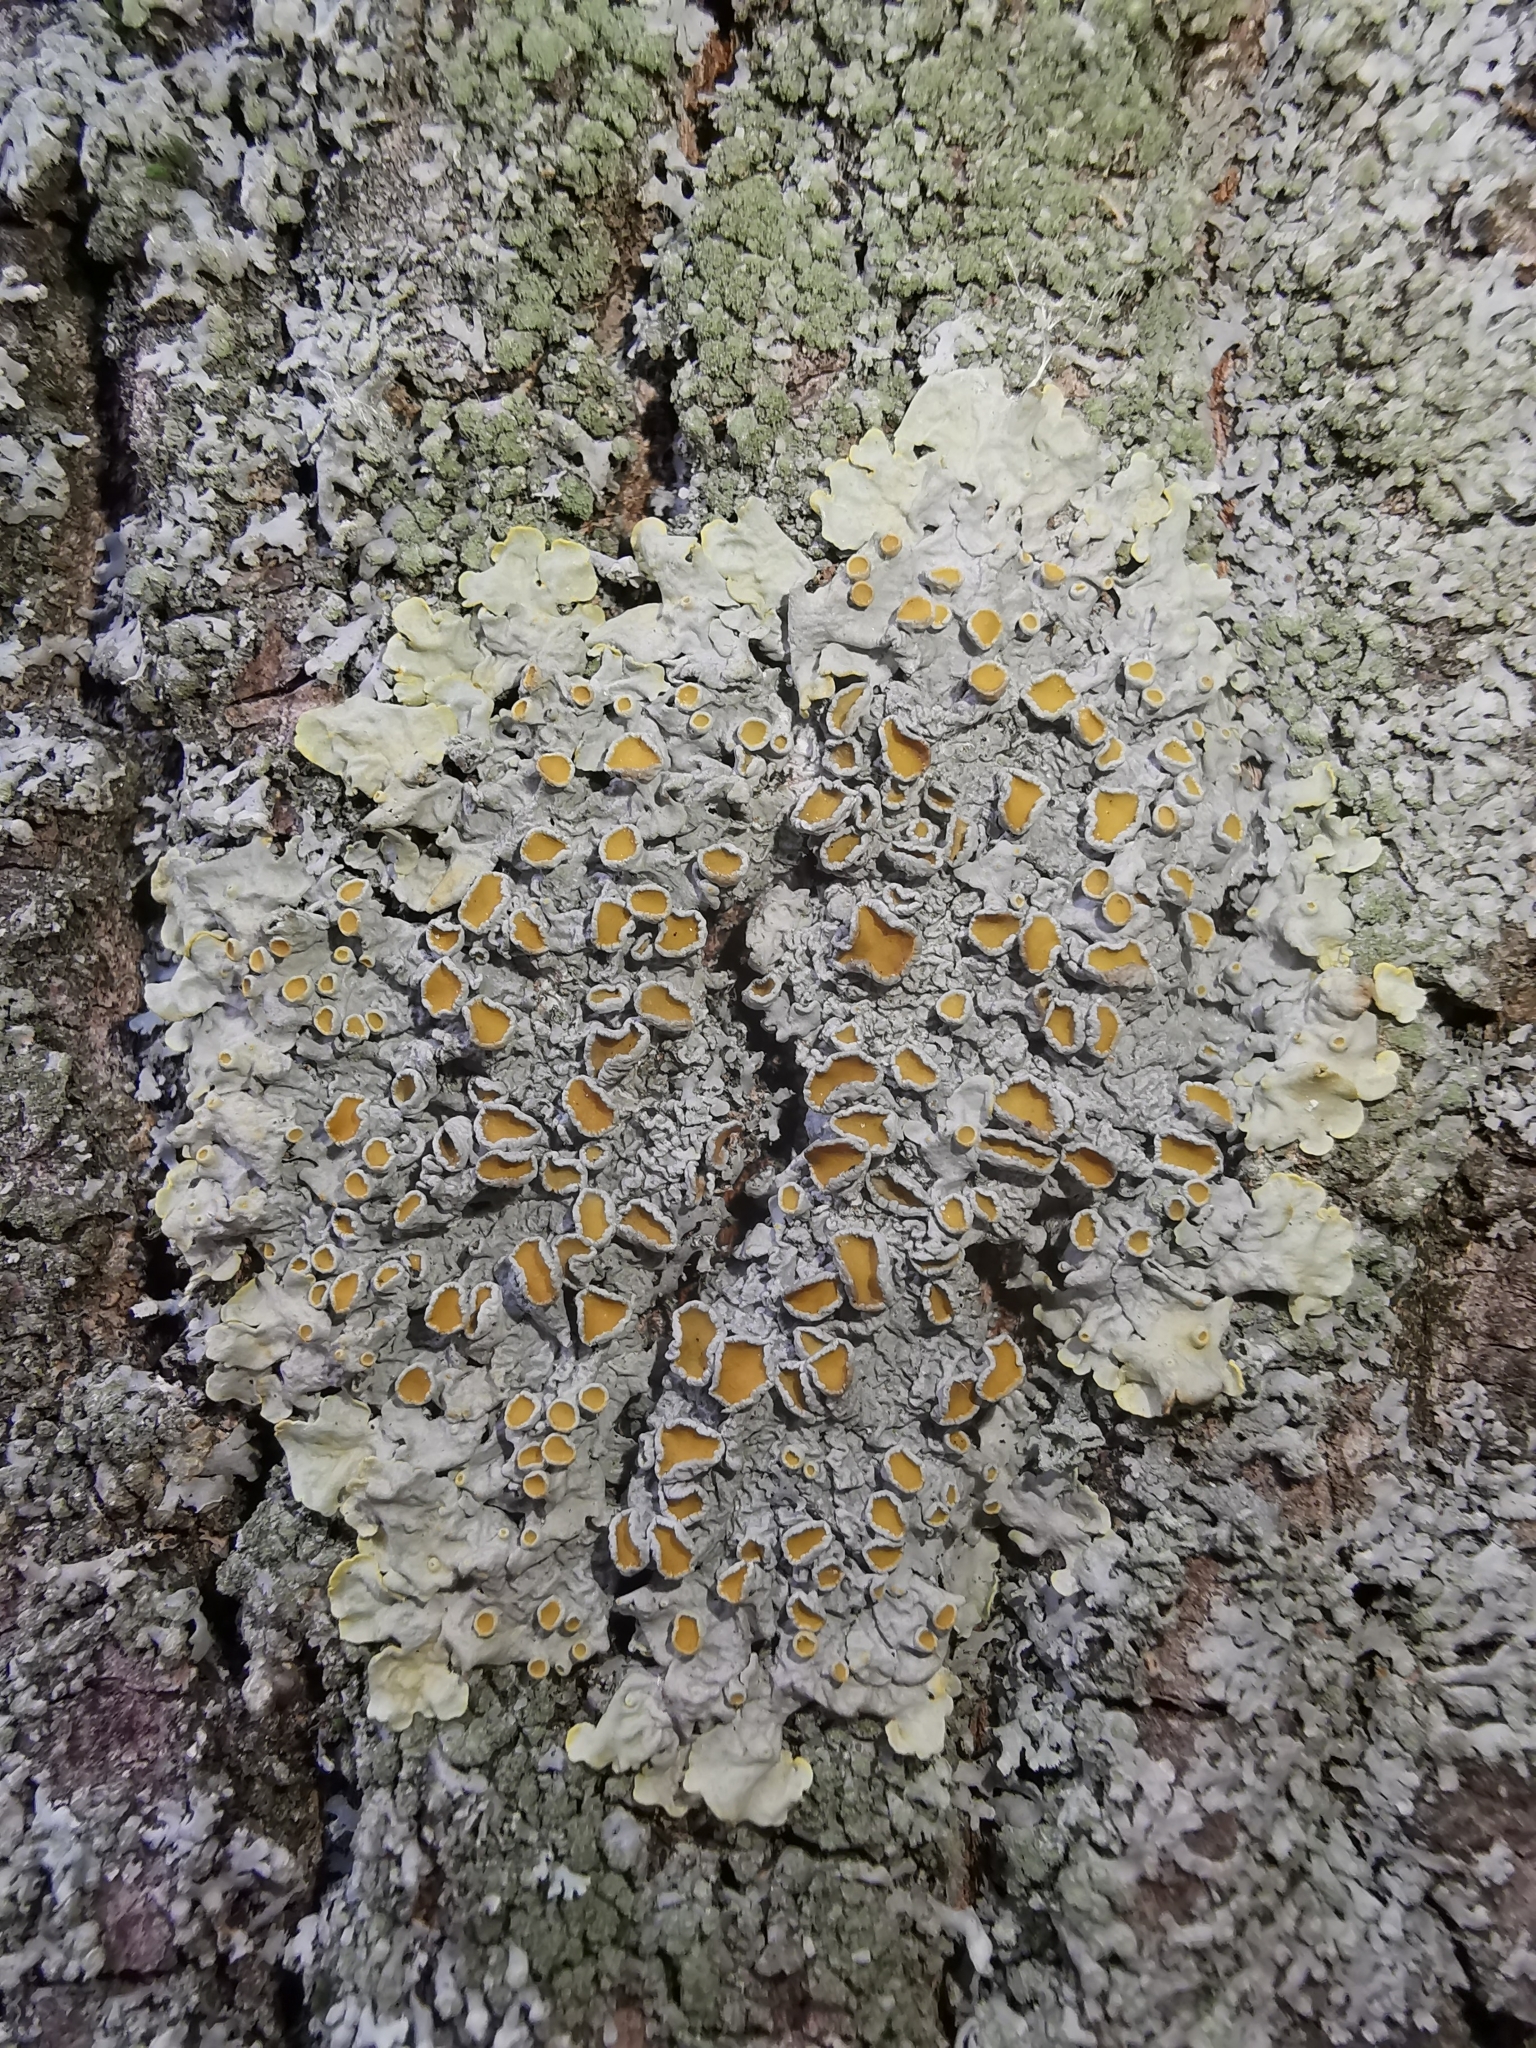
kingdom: Fungi
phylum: Ascomycota
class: Lecanoromycetes
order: Teloschistales
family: Teloschistaceae
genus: Xanthoria
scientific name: Xanthoria parietina
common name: Common orange lichen
